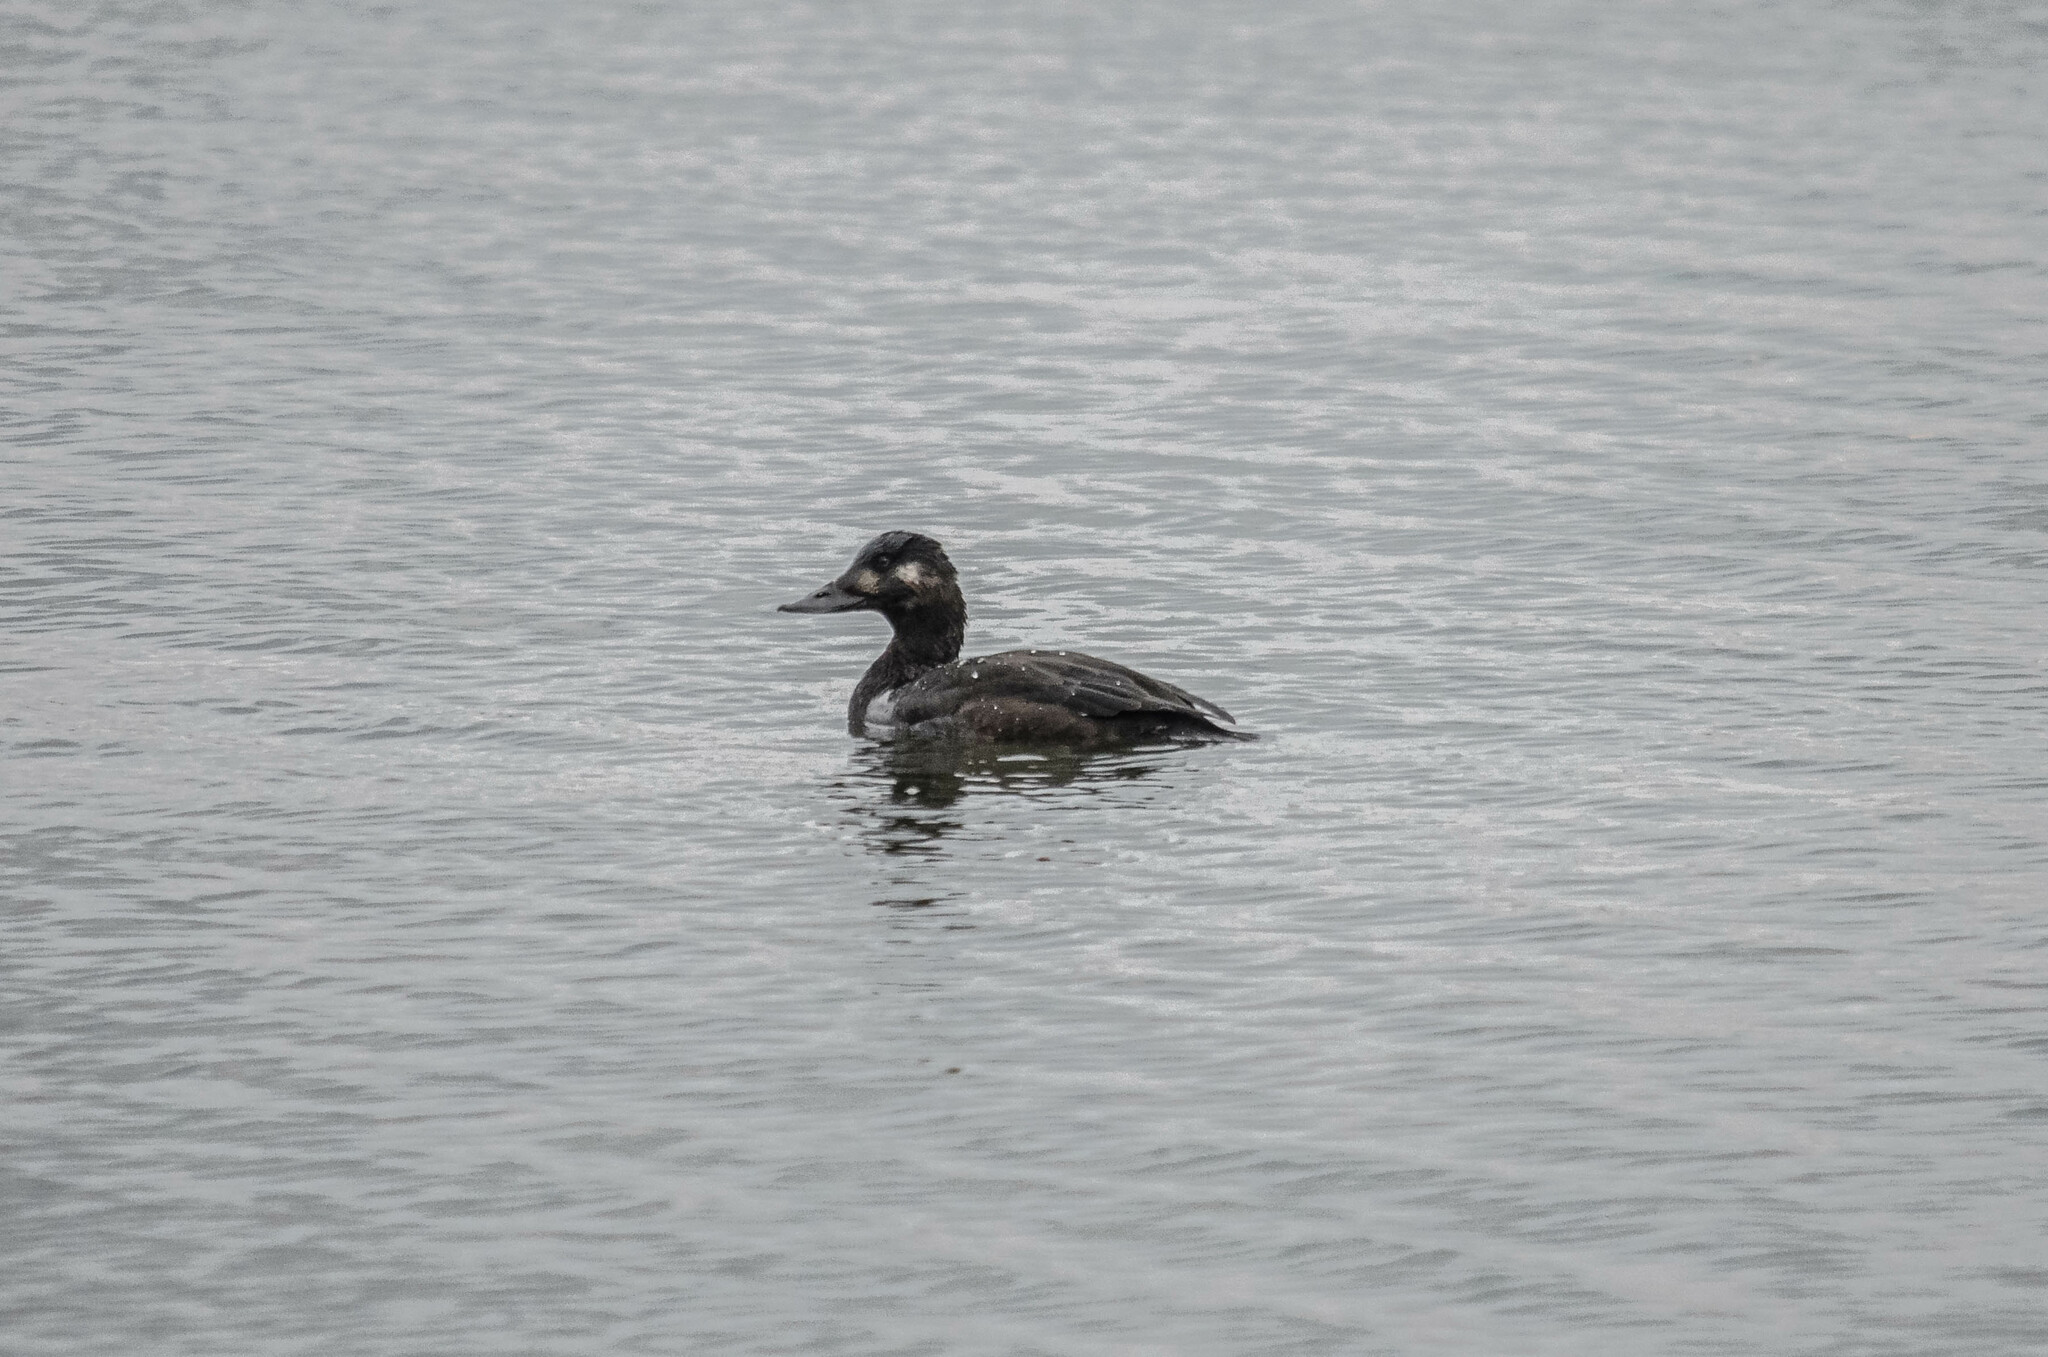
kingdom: Animalia
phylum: Chordata
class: Aves
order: Anseriformes
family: Anatidae
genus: Melanitta
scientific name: Melanitta fusca
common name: Velvet scoter
